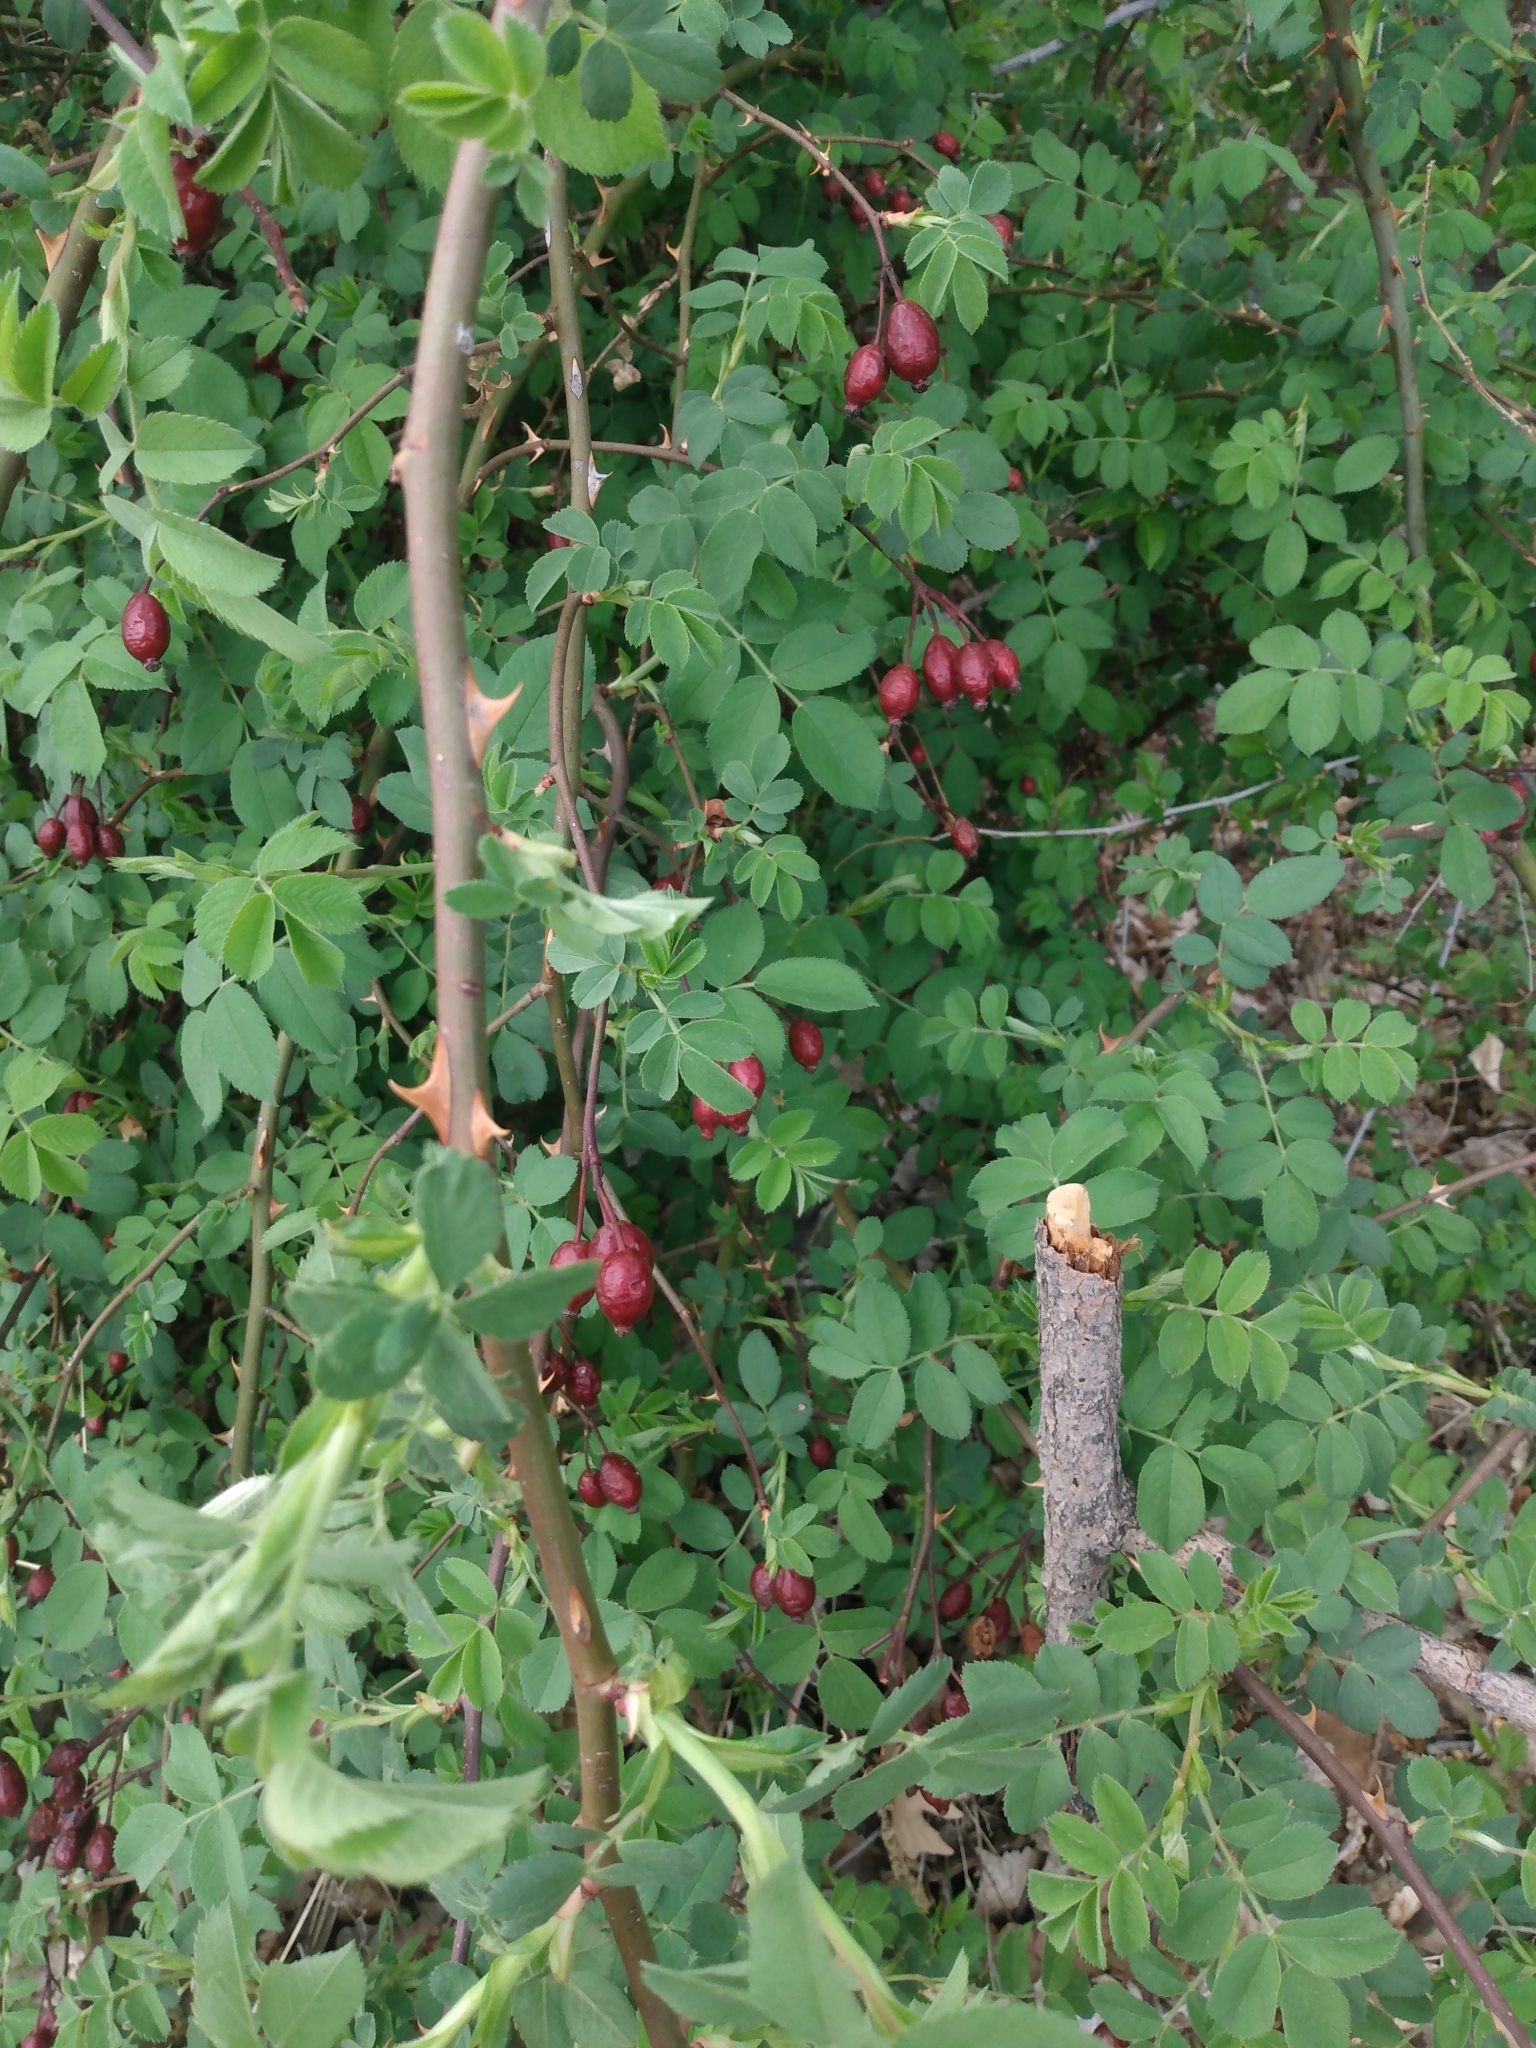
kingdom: Plantae
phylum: Tracheophyta
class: Magnoliopsida
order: Rosales
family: Rosaceae
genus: Rosa
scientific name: Rosa canina
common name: Dog rose
